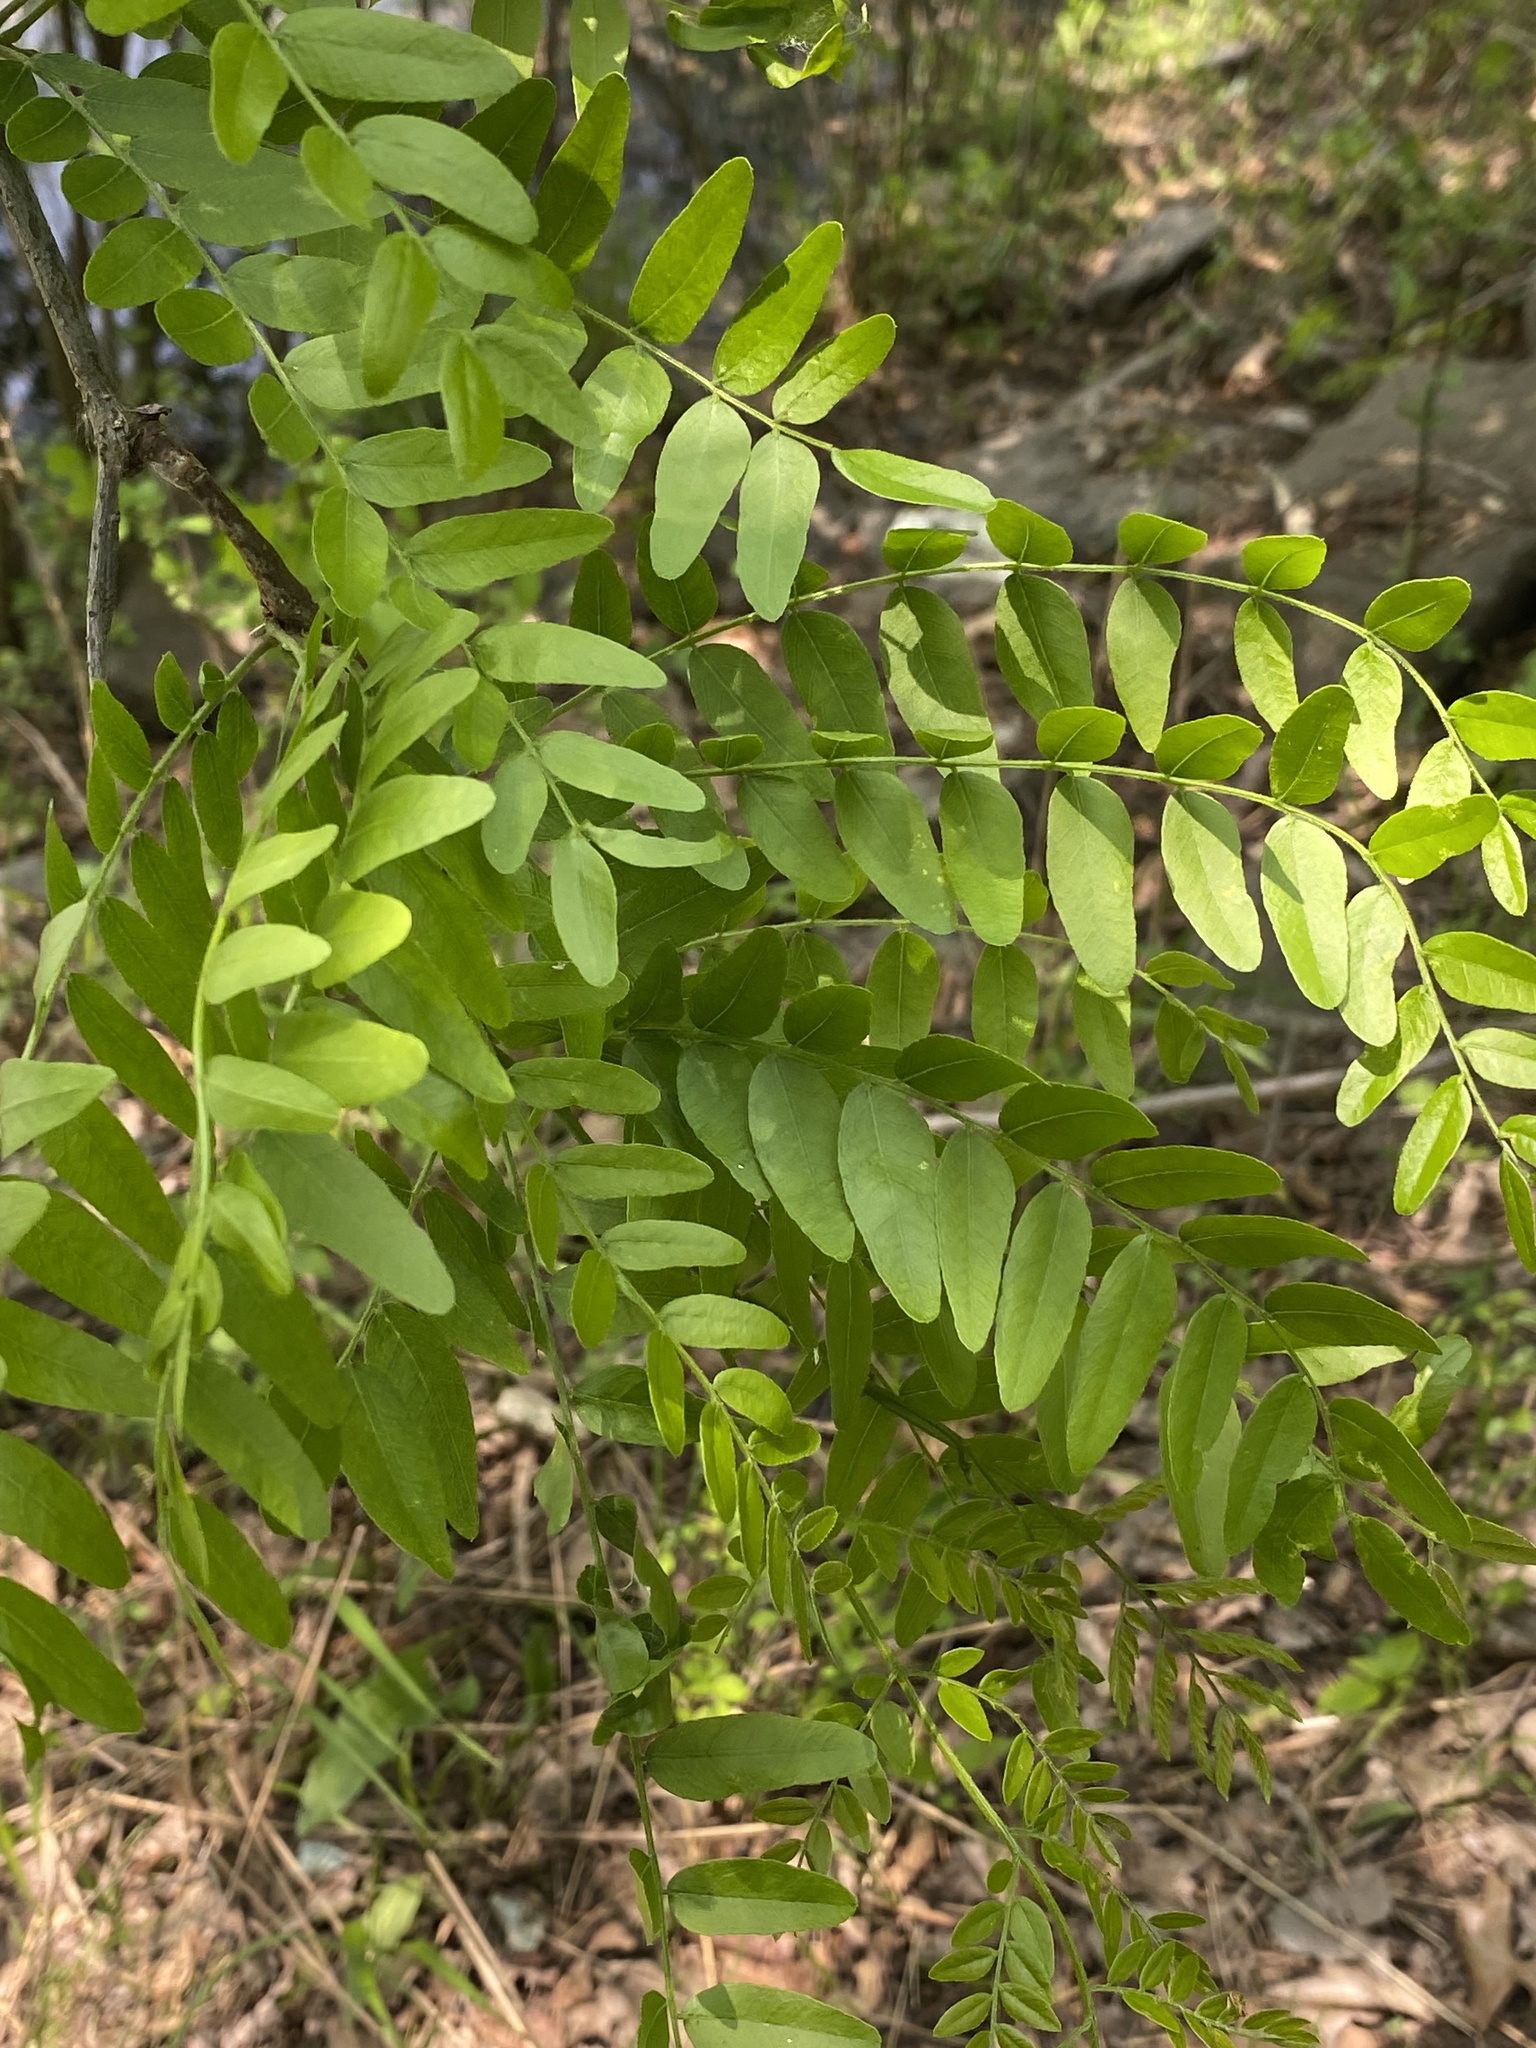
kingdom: Plantae
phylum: Tracheophyta
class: Magnoliopsida
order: Fabales
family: Fabaceae
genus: Gleditsia
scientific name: Gleditsia triacanthos
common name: Common honeylocust
